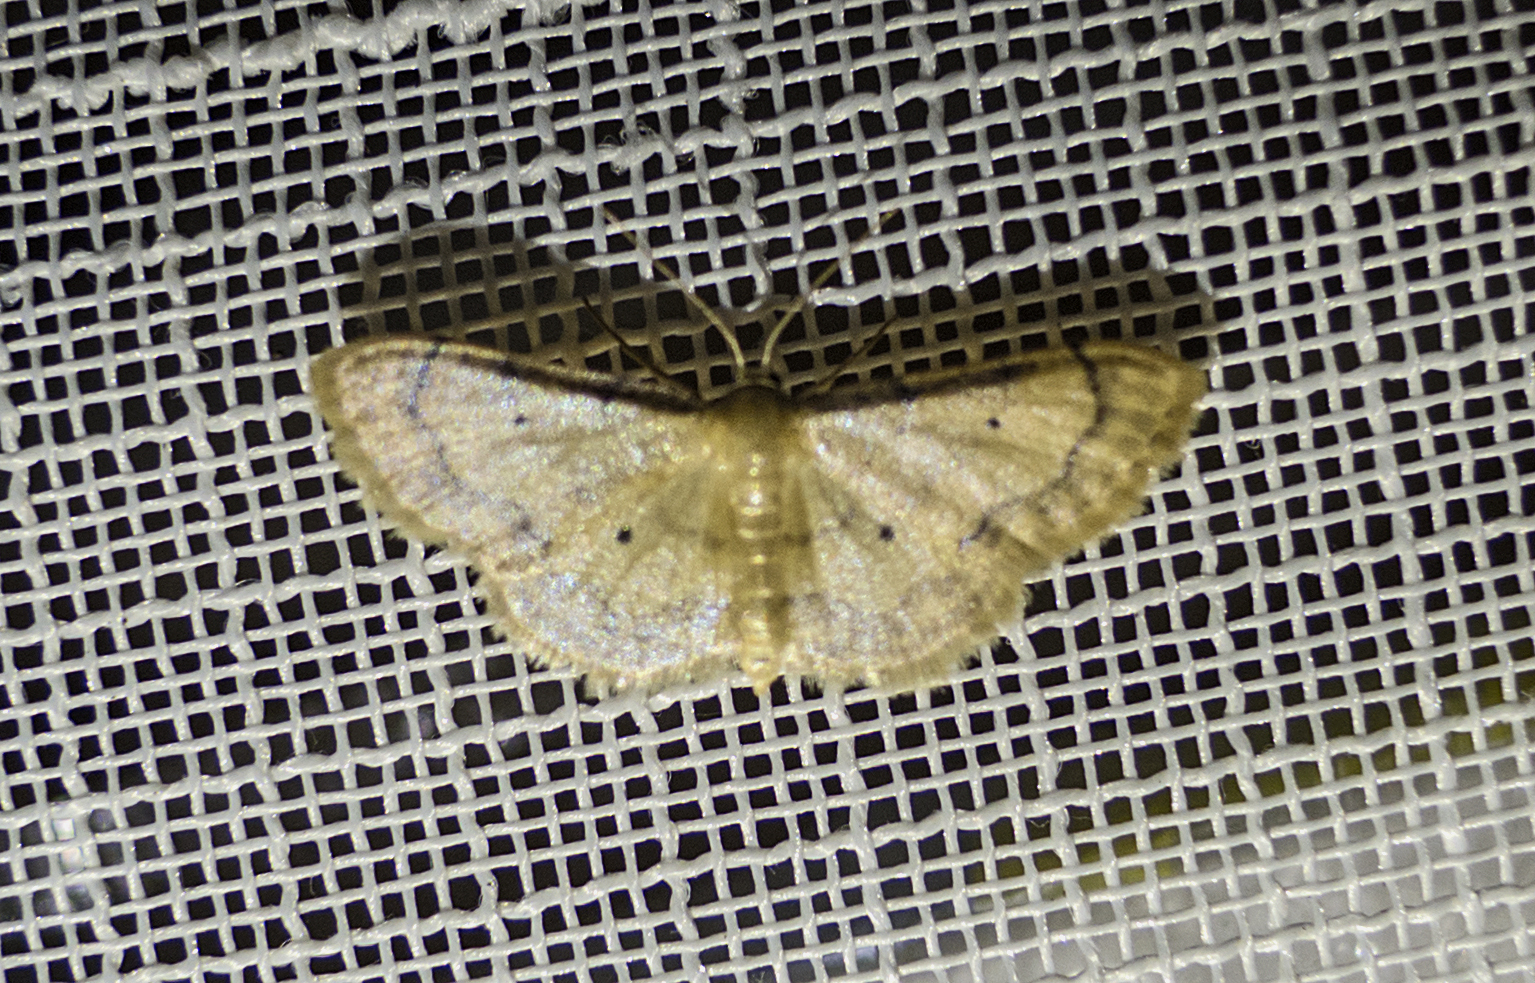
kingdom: Animalia
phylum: Arthropoda
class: Insecta
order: Lepidoptera
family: Geometridae
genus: Idaea
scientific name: Idaea politaria
